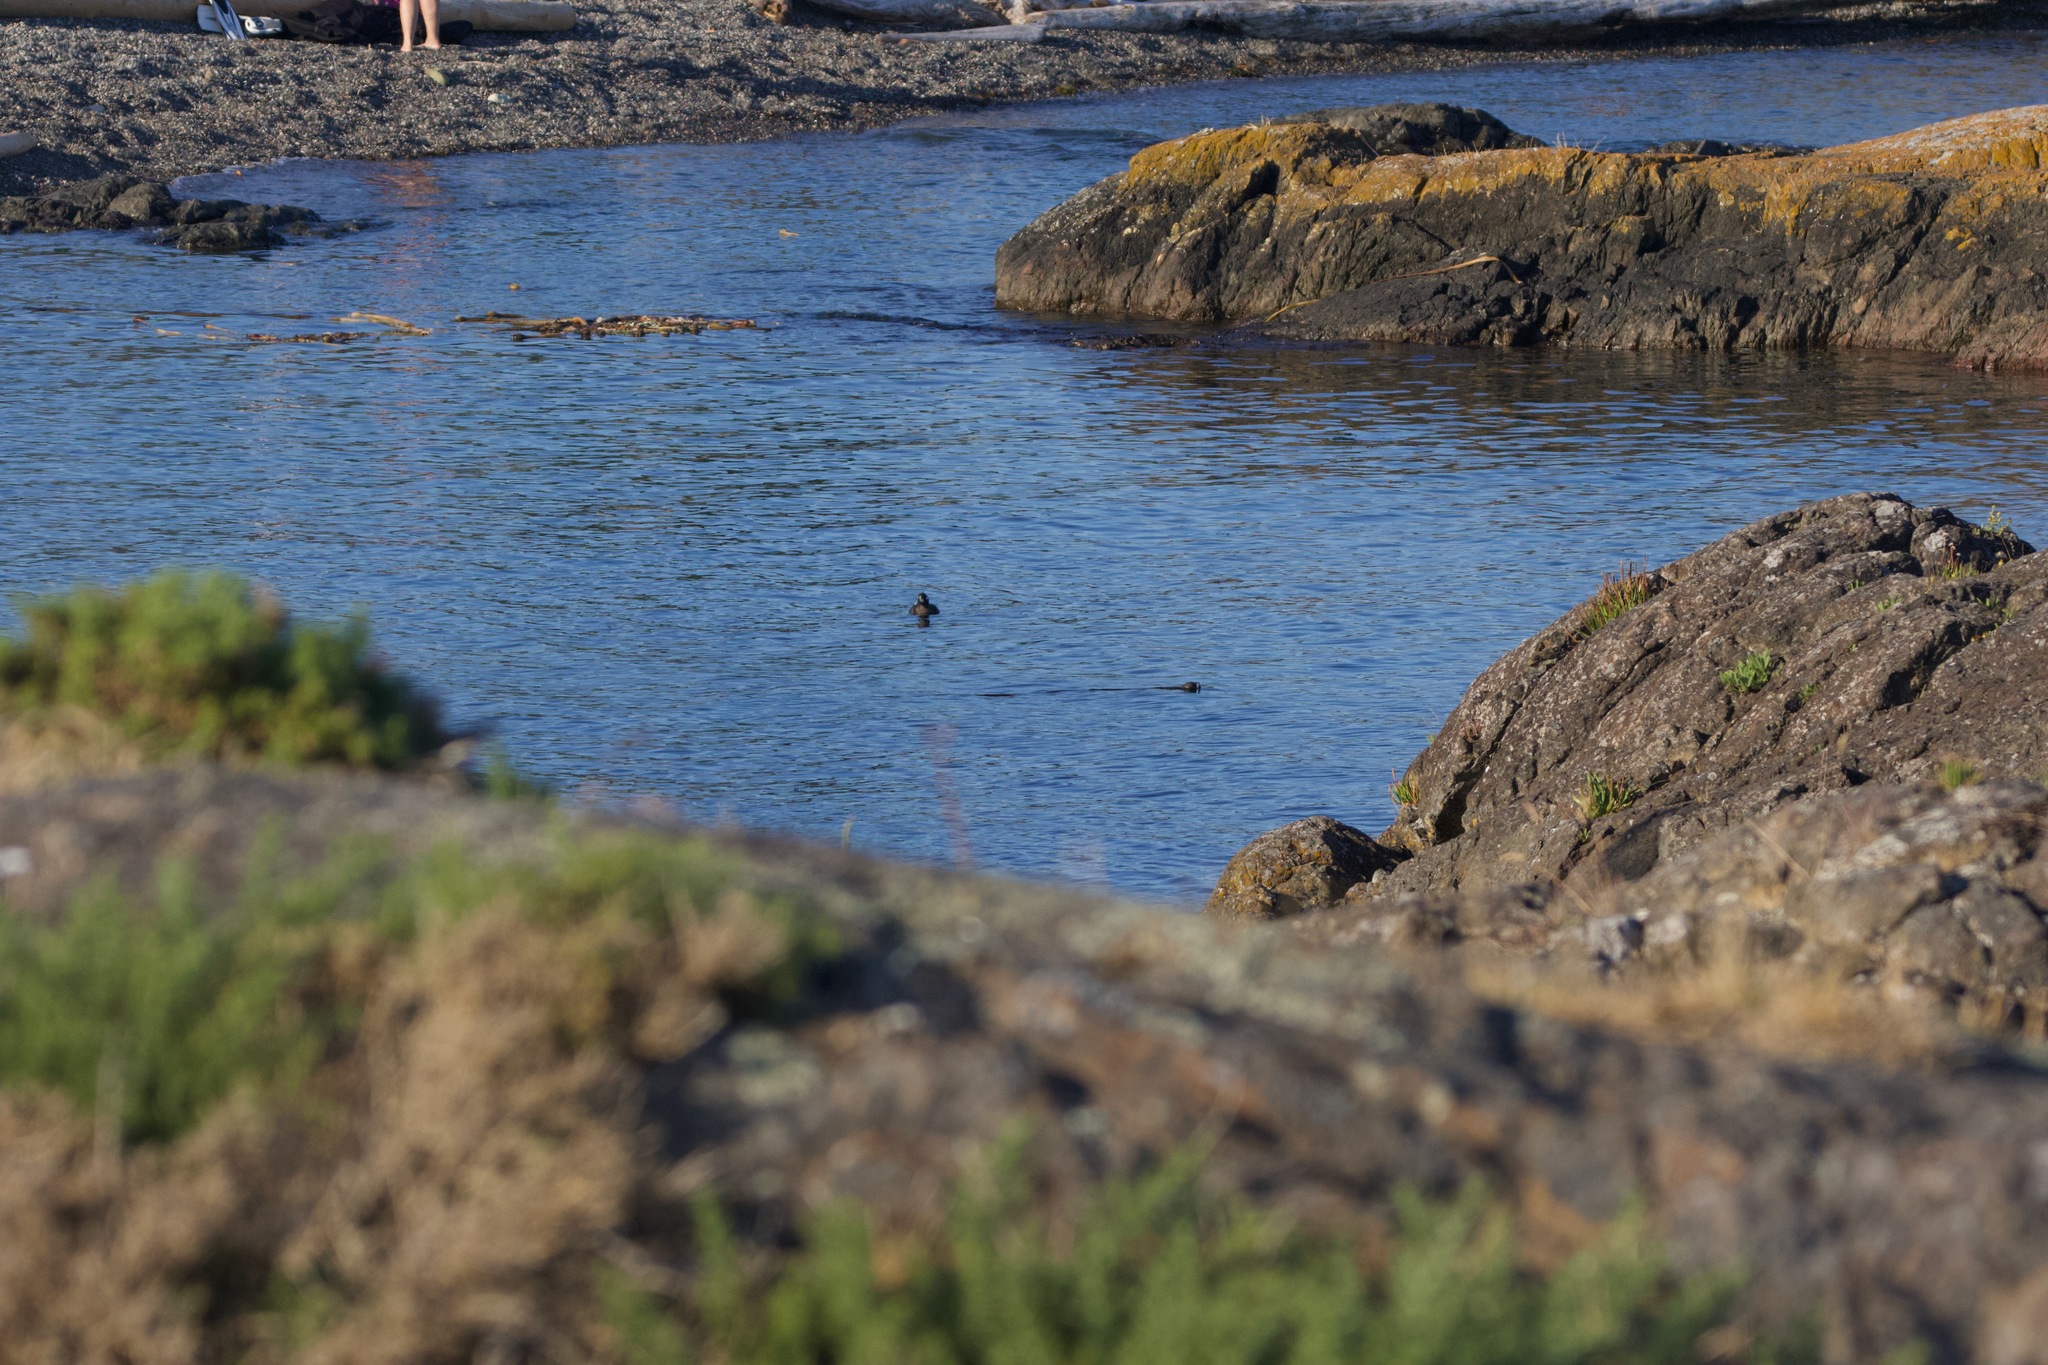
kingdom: Animalia
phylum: Chordata
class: Aves
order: Anseriformes
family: Anatidae
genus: Histrionicus
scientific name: Histrionicus histrionicus
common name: Harlequin duck
